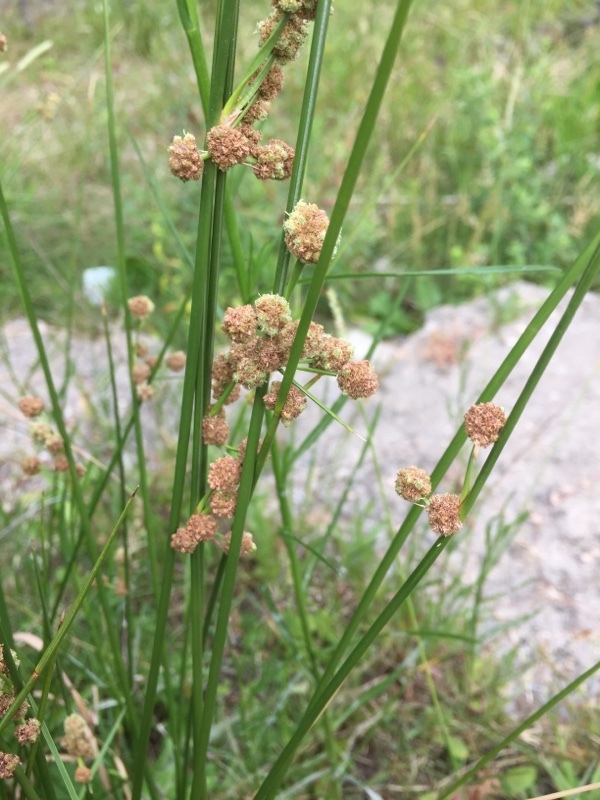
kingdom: Plantae
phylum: Tracheophyta
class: Liliopsida
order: Poales
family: Cyperaceae
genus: Scirpoides
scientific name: Scirpoides holoschoenus
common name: Round-headed club-rush
